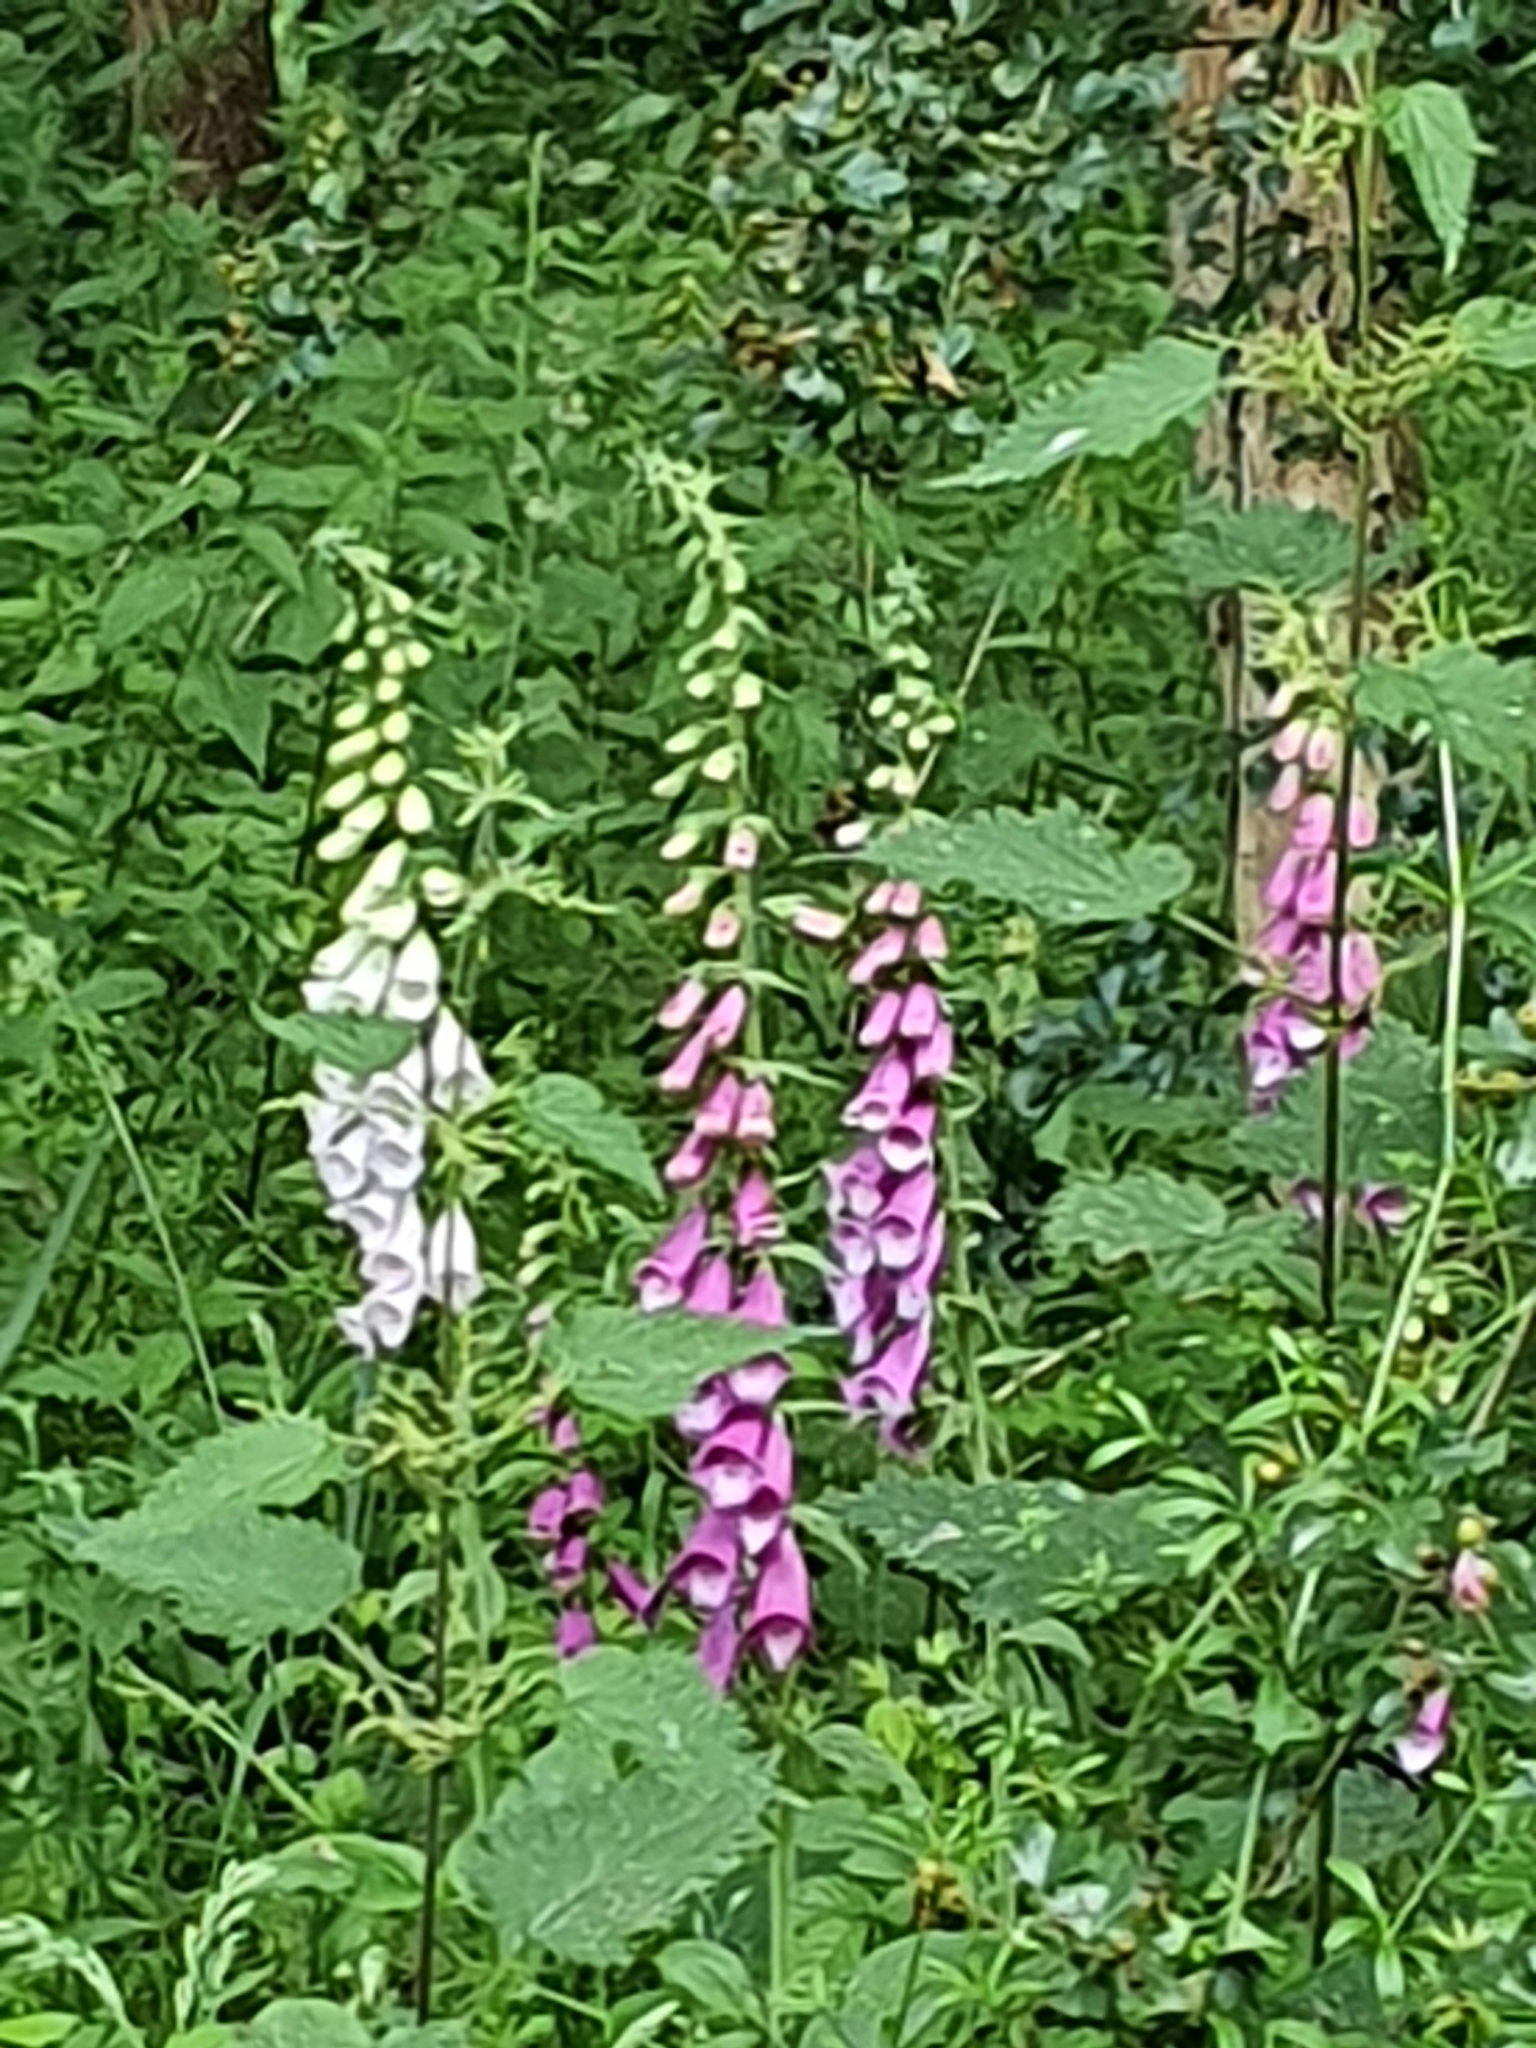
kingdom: Plantae
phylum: Tracheophyta
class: Magnoliopsida
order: Lamiales
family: Plantaginaceae
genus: Digitalis
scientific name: Digitalis purpurea
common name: Foxglove
